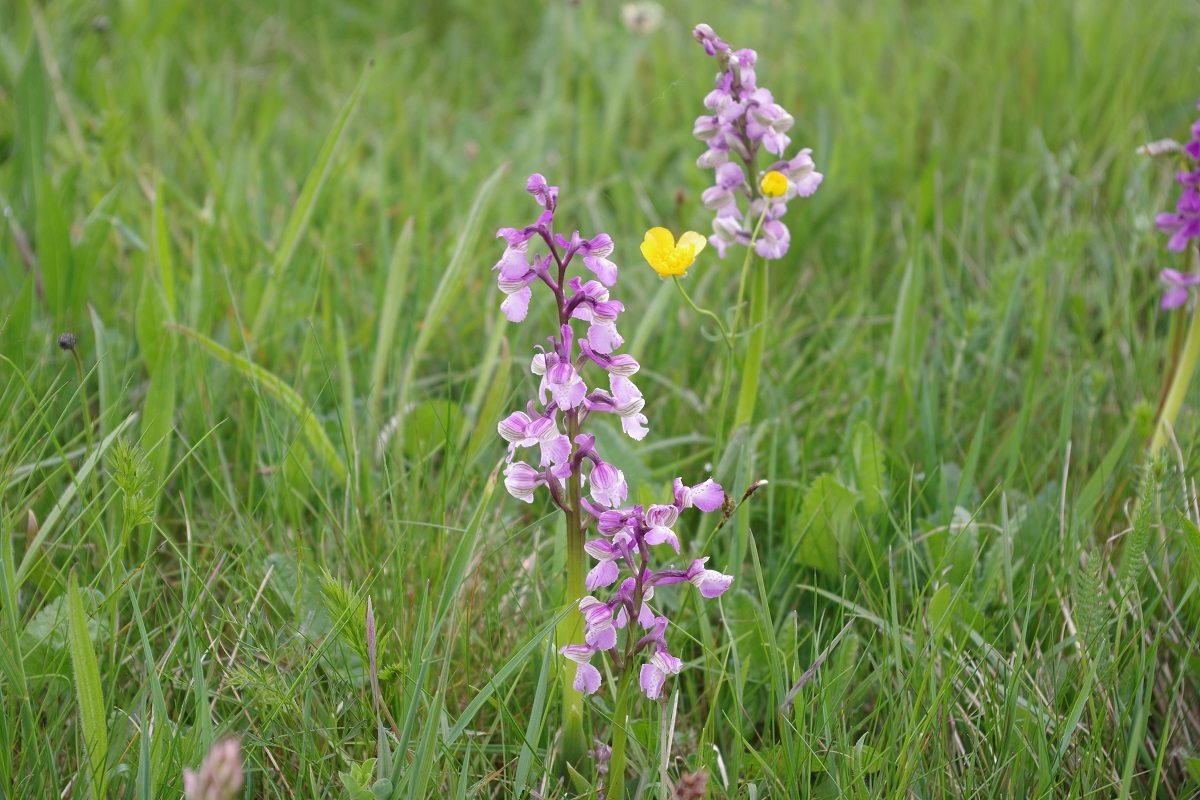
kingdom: Plantae
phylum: Tracheophyta
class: Liliopsida
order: Asparagales
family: Orchidaceae
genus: Anacamptis
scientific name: Anacamptis morio
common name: Green-winged orchid
